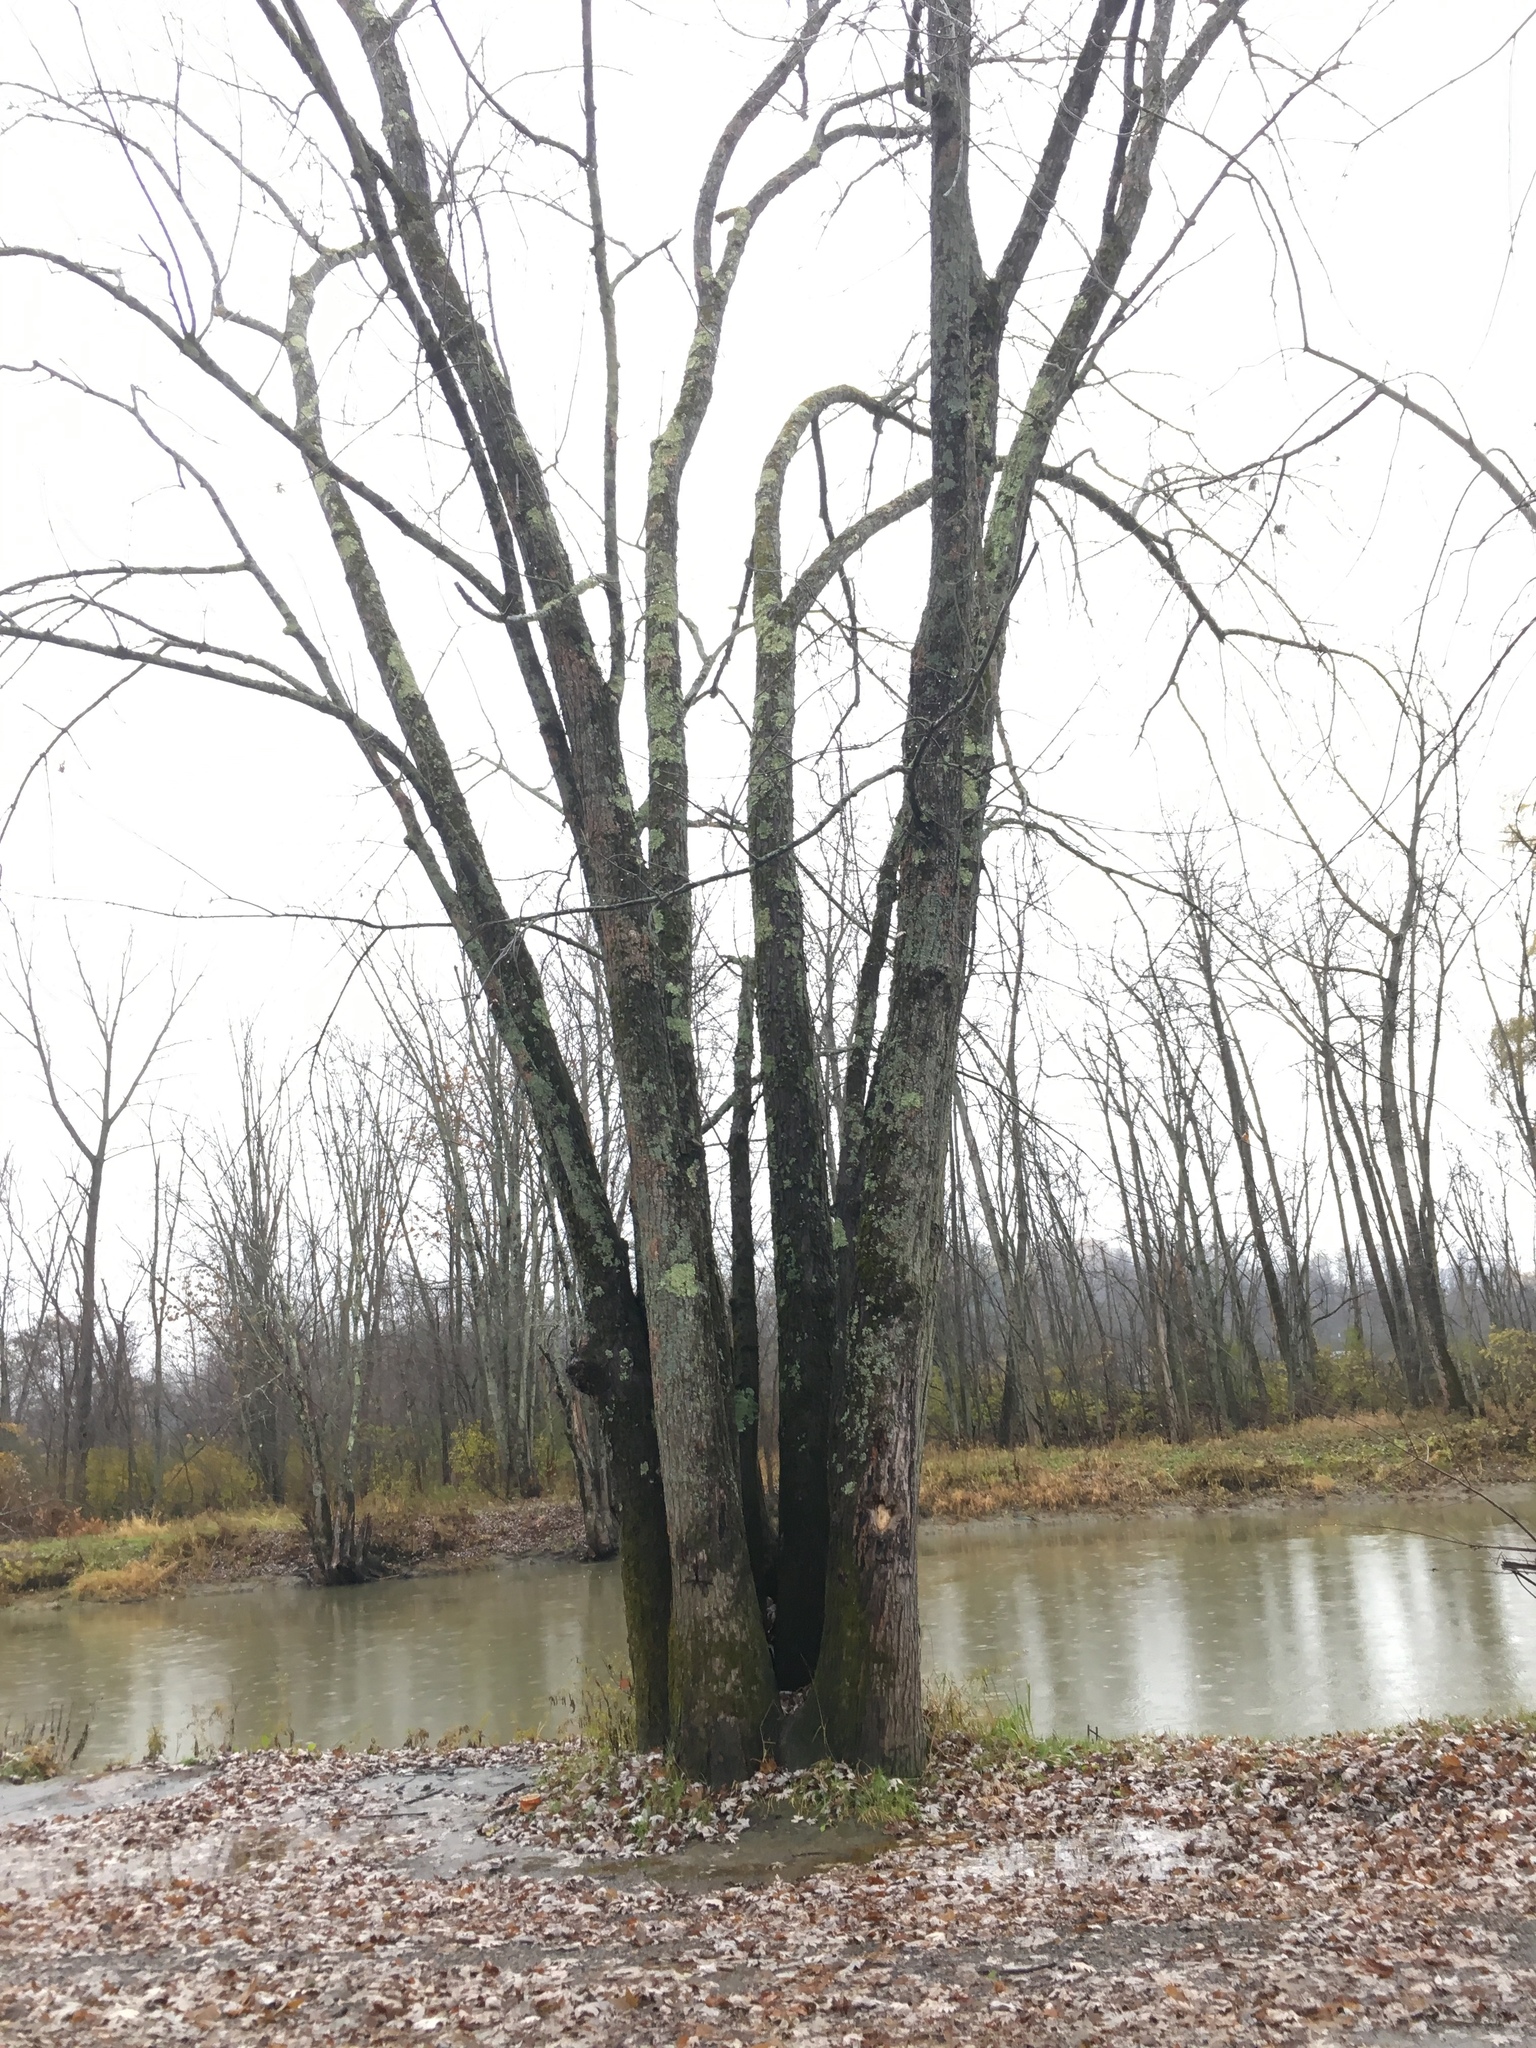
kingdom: Plantae
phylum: Tracheophyta
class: Magnoliopsida
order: Sapindales
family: Sapindaceae
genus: Acer
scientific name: Acer saccharinum
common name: Silver maple
